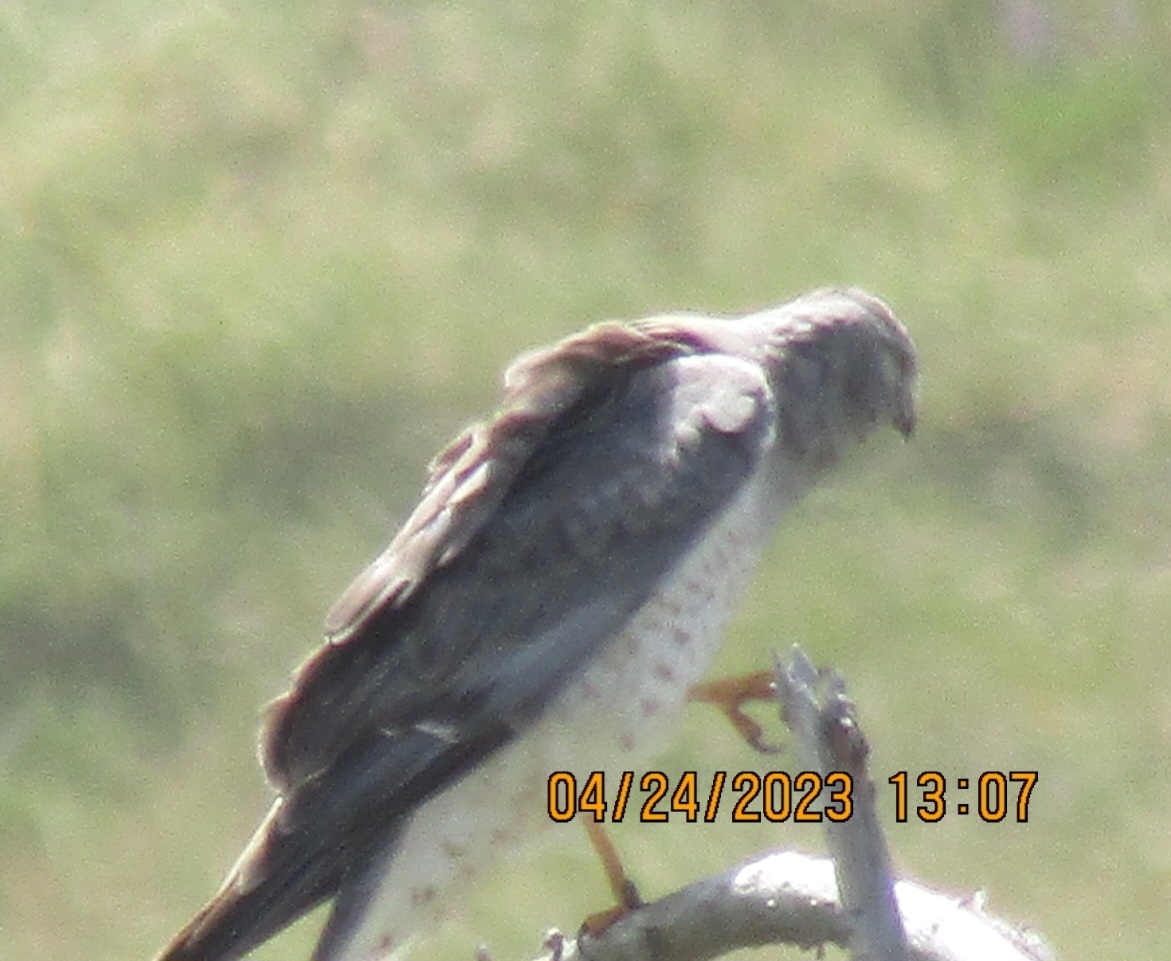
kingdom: Animalia
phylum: Chordata
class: Aves
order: Accipitriformes
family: Accipitridae
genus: Circus
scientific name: Circus cyaneus
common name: Hen harrier
